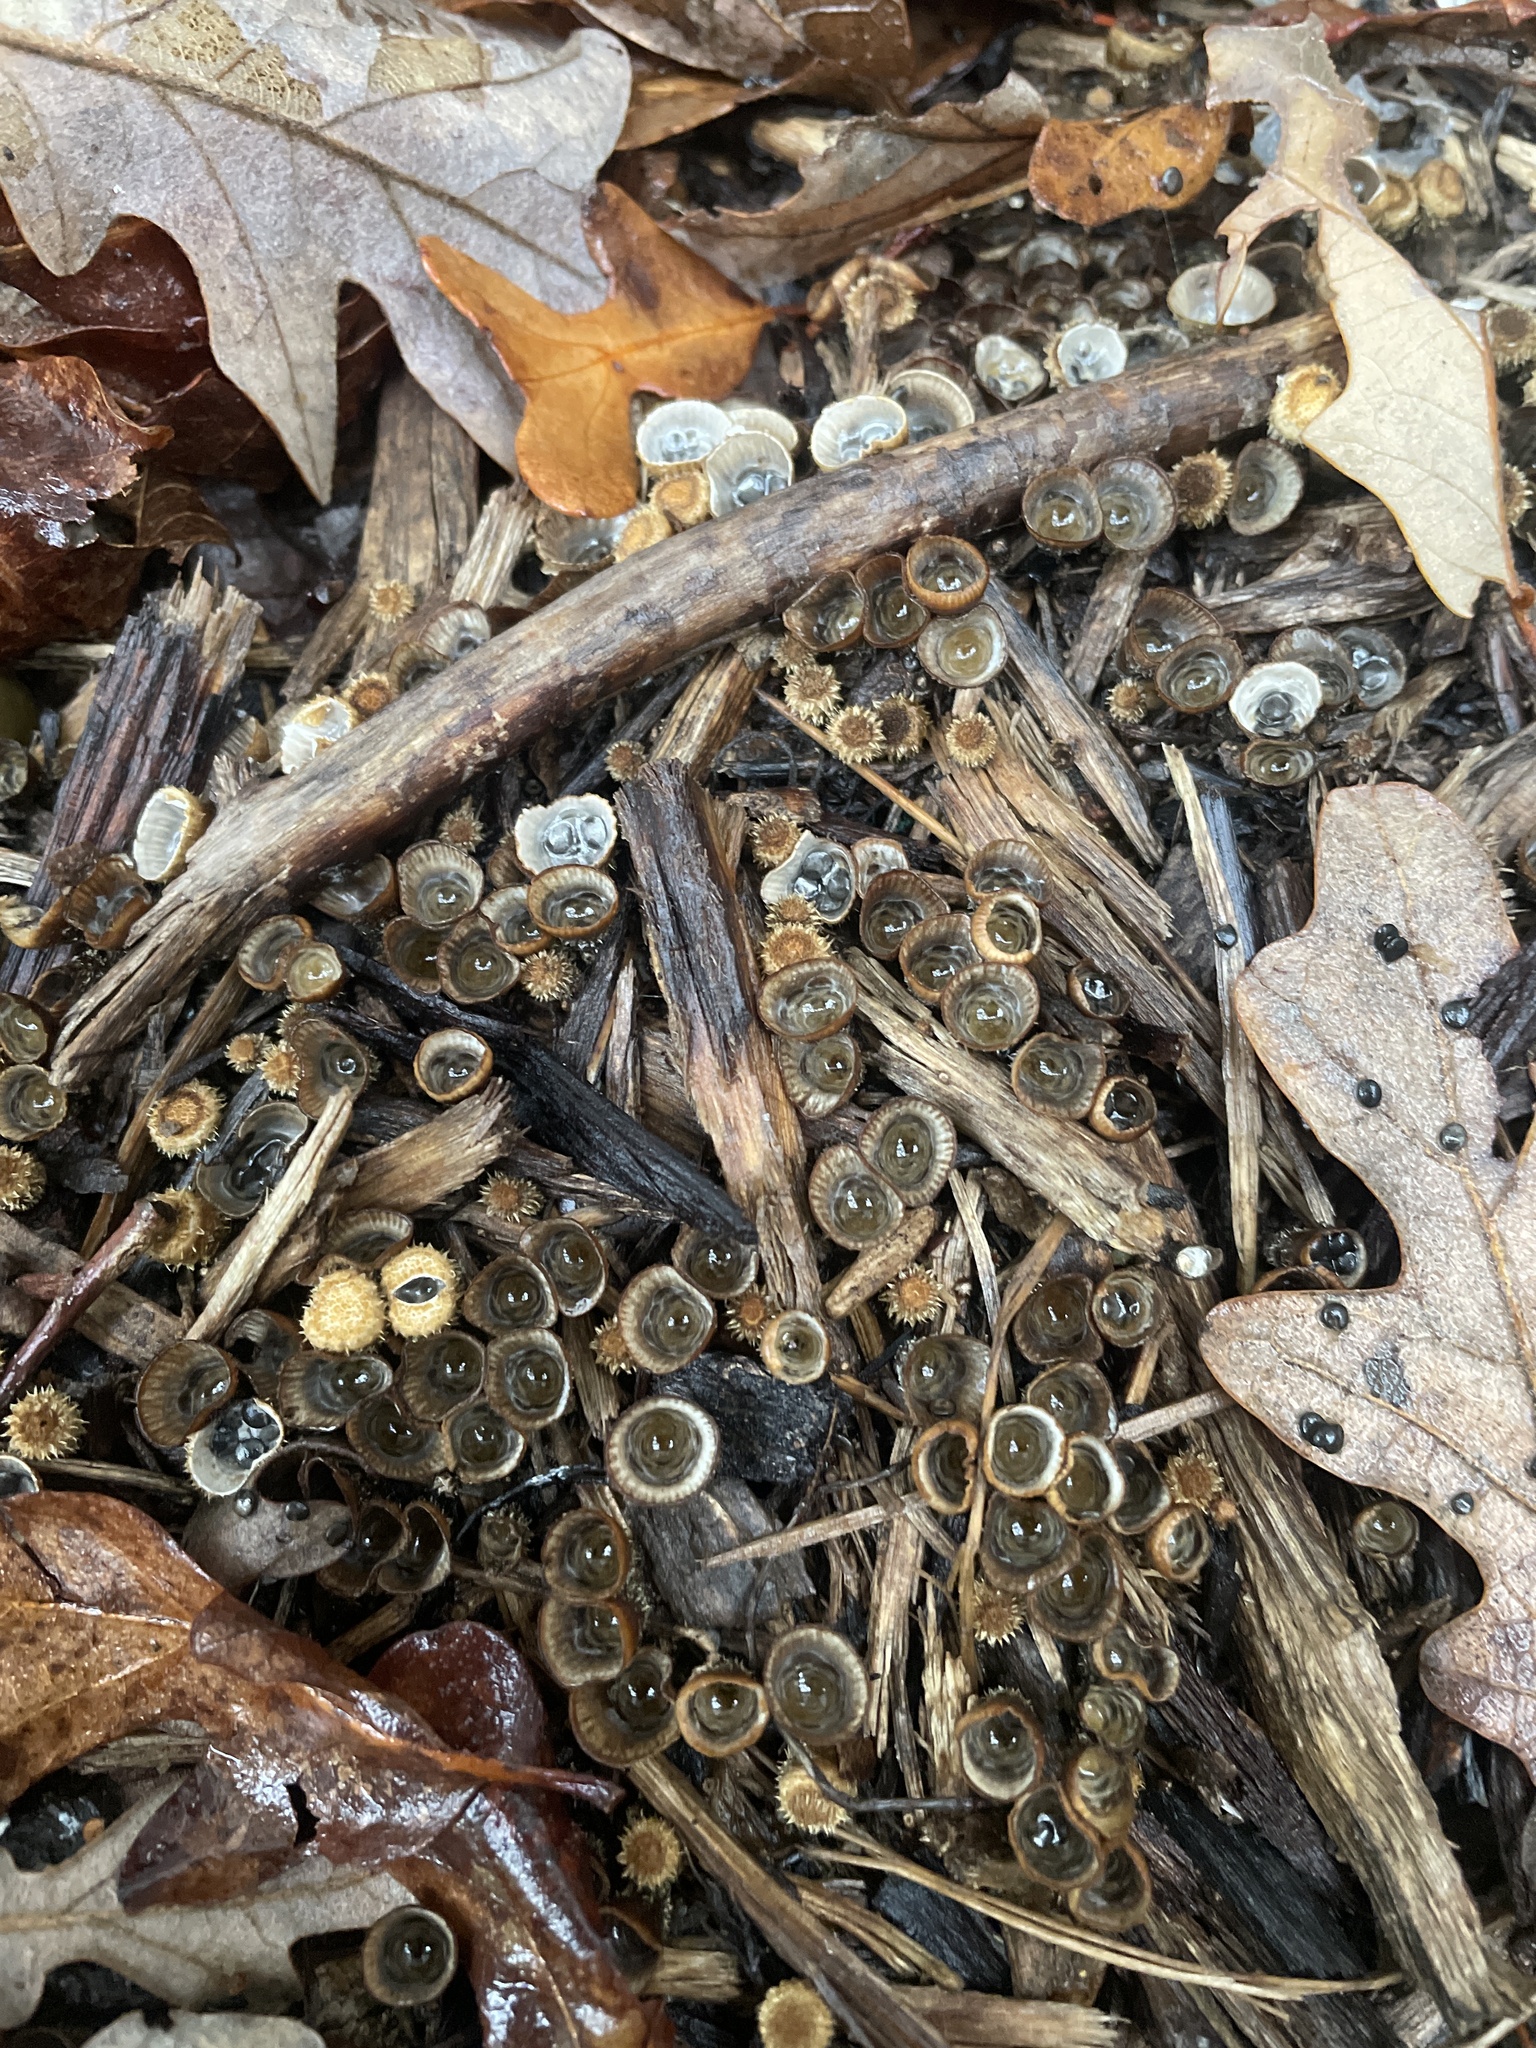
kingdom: Fungi
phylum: Basidiomycota
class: Agaricomycetes
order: Agaricales
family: Agaricaceae
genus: Cyathus
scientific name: Cyathus stercoreus
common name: Dung bird's nest
